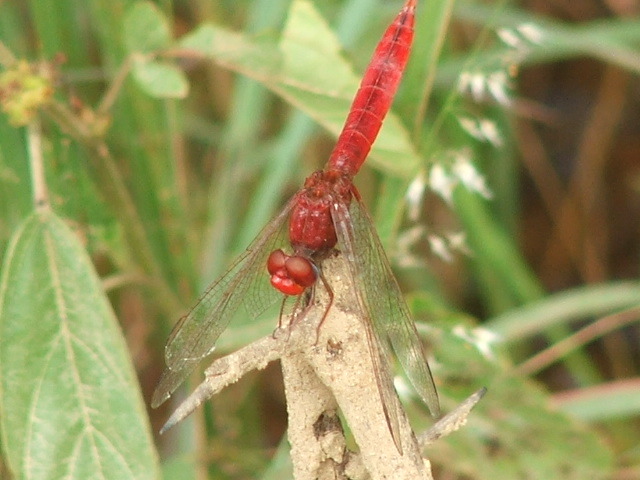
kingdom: Animalia
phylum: Arthropoda
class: Insecta
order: Odonata
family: Libellulidae
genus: Crocothemis
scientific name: Crocothemis erythraea
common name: Scarlet dragonfly
